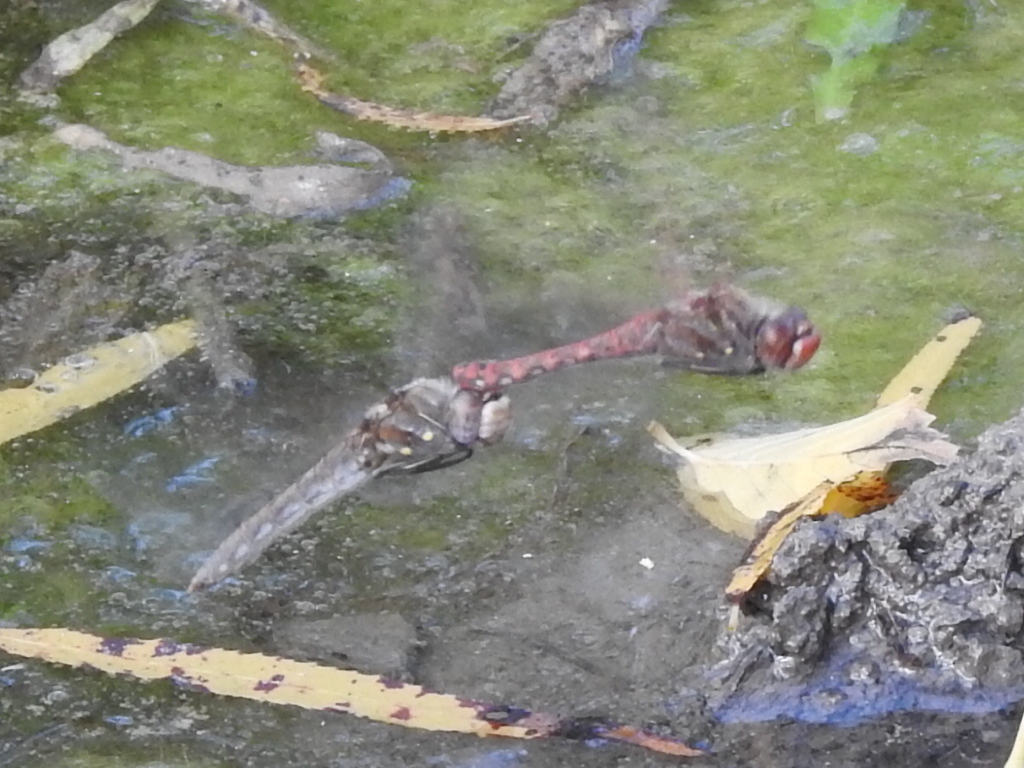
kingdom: Animalia
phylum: Arthropoda
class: Insecta
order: Odonata
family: Libellulidae
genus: Sympetrum
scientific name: Sympetrum corruptum
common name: Variegated meadowhawk
